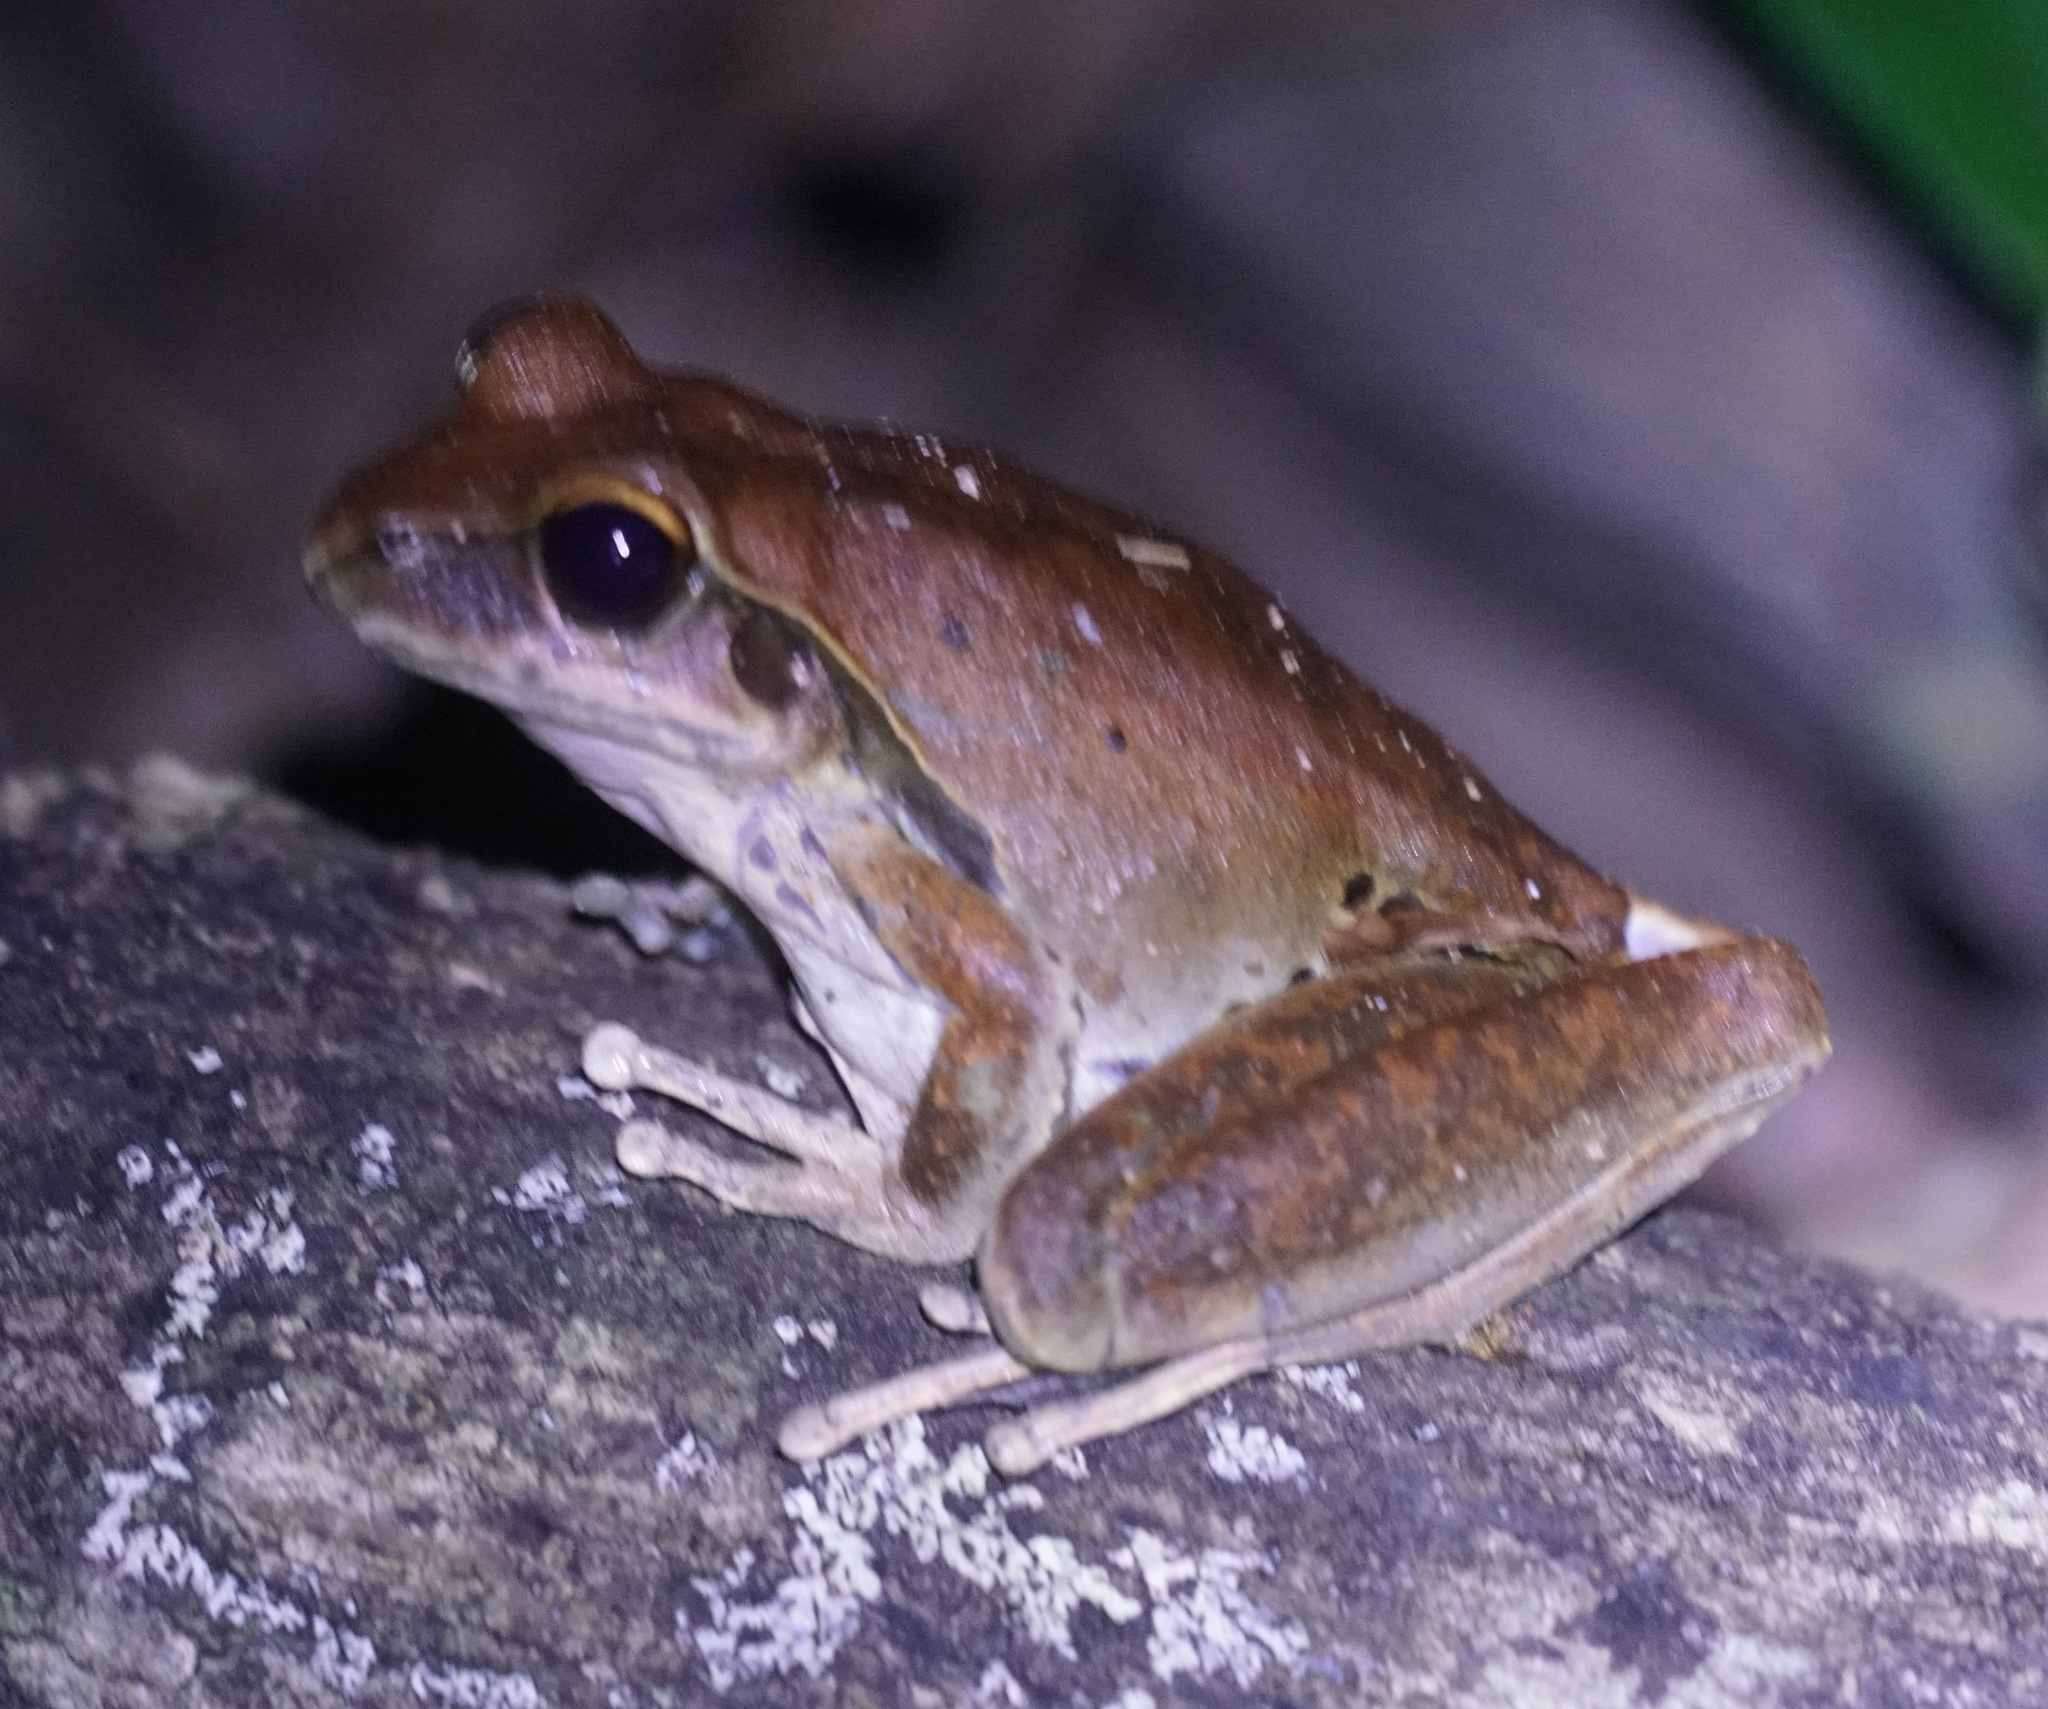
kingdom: Animalia
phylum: Chordata
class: Amphibia
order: Anura
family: Hylidae
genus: Ranoidea
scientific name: Ranoidea
